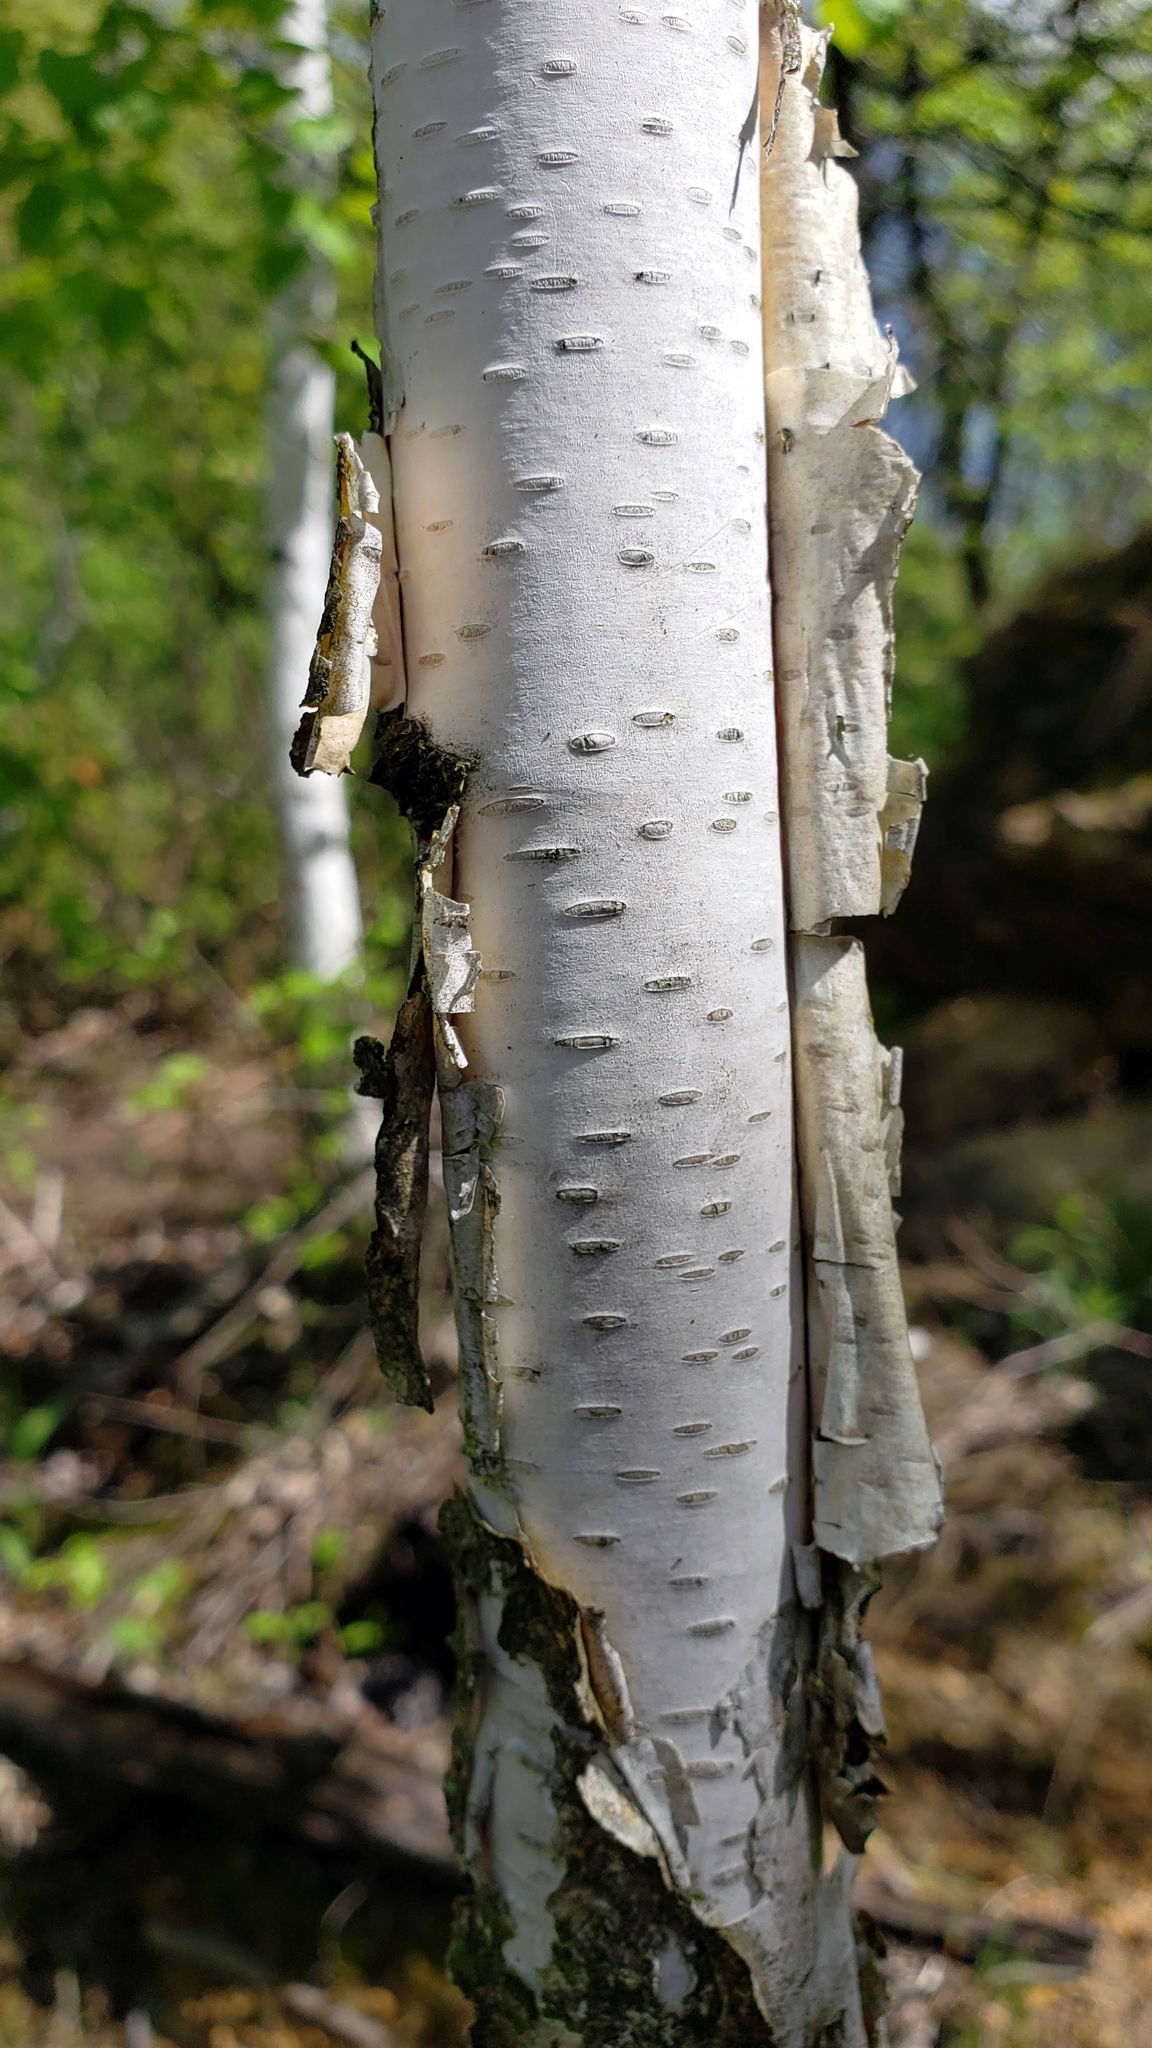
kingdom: Plantae
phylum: Tracheophyta
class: Magnoliopsida
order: Fagales
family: Betulaceae
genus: Betula
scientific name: Betula papyrifera
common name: Paper birch
